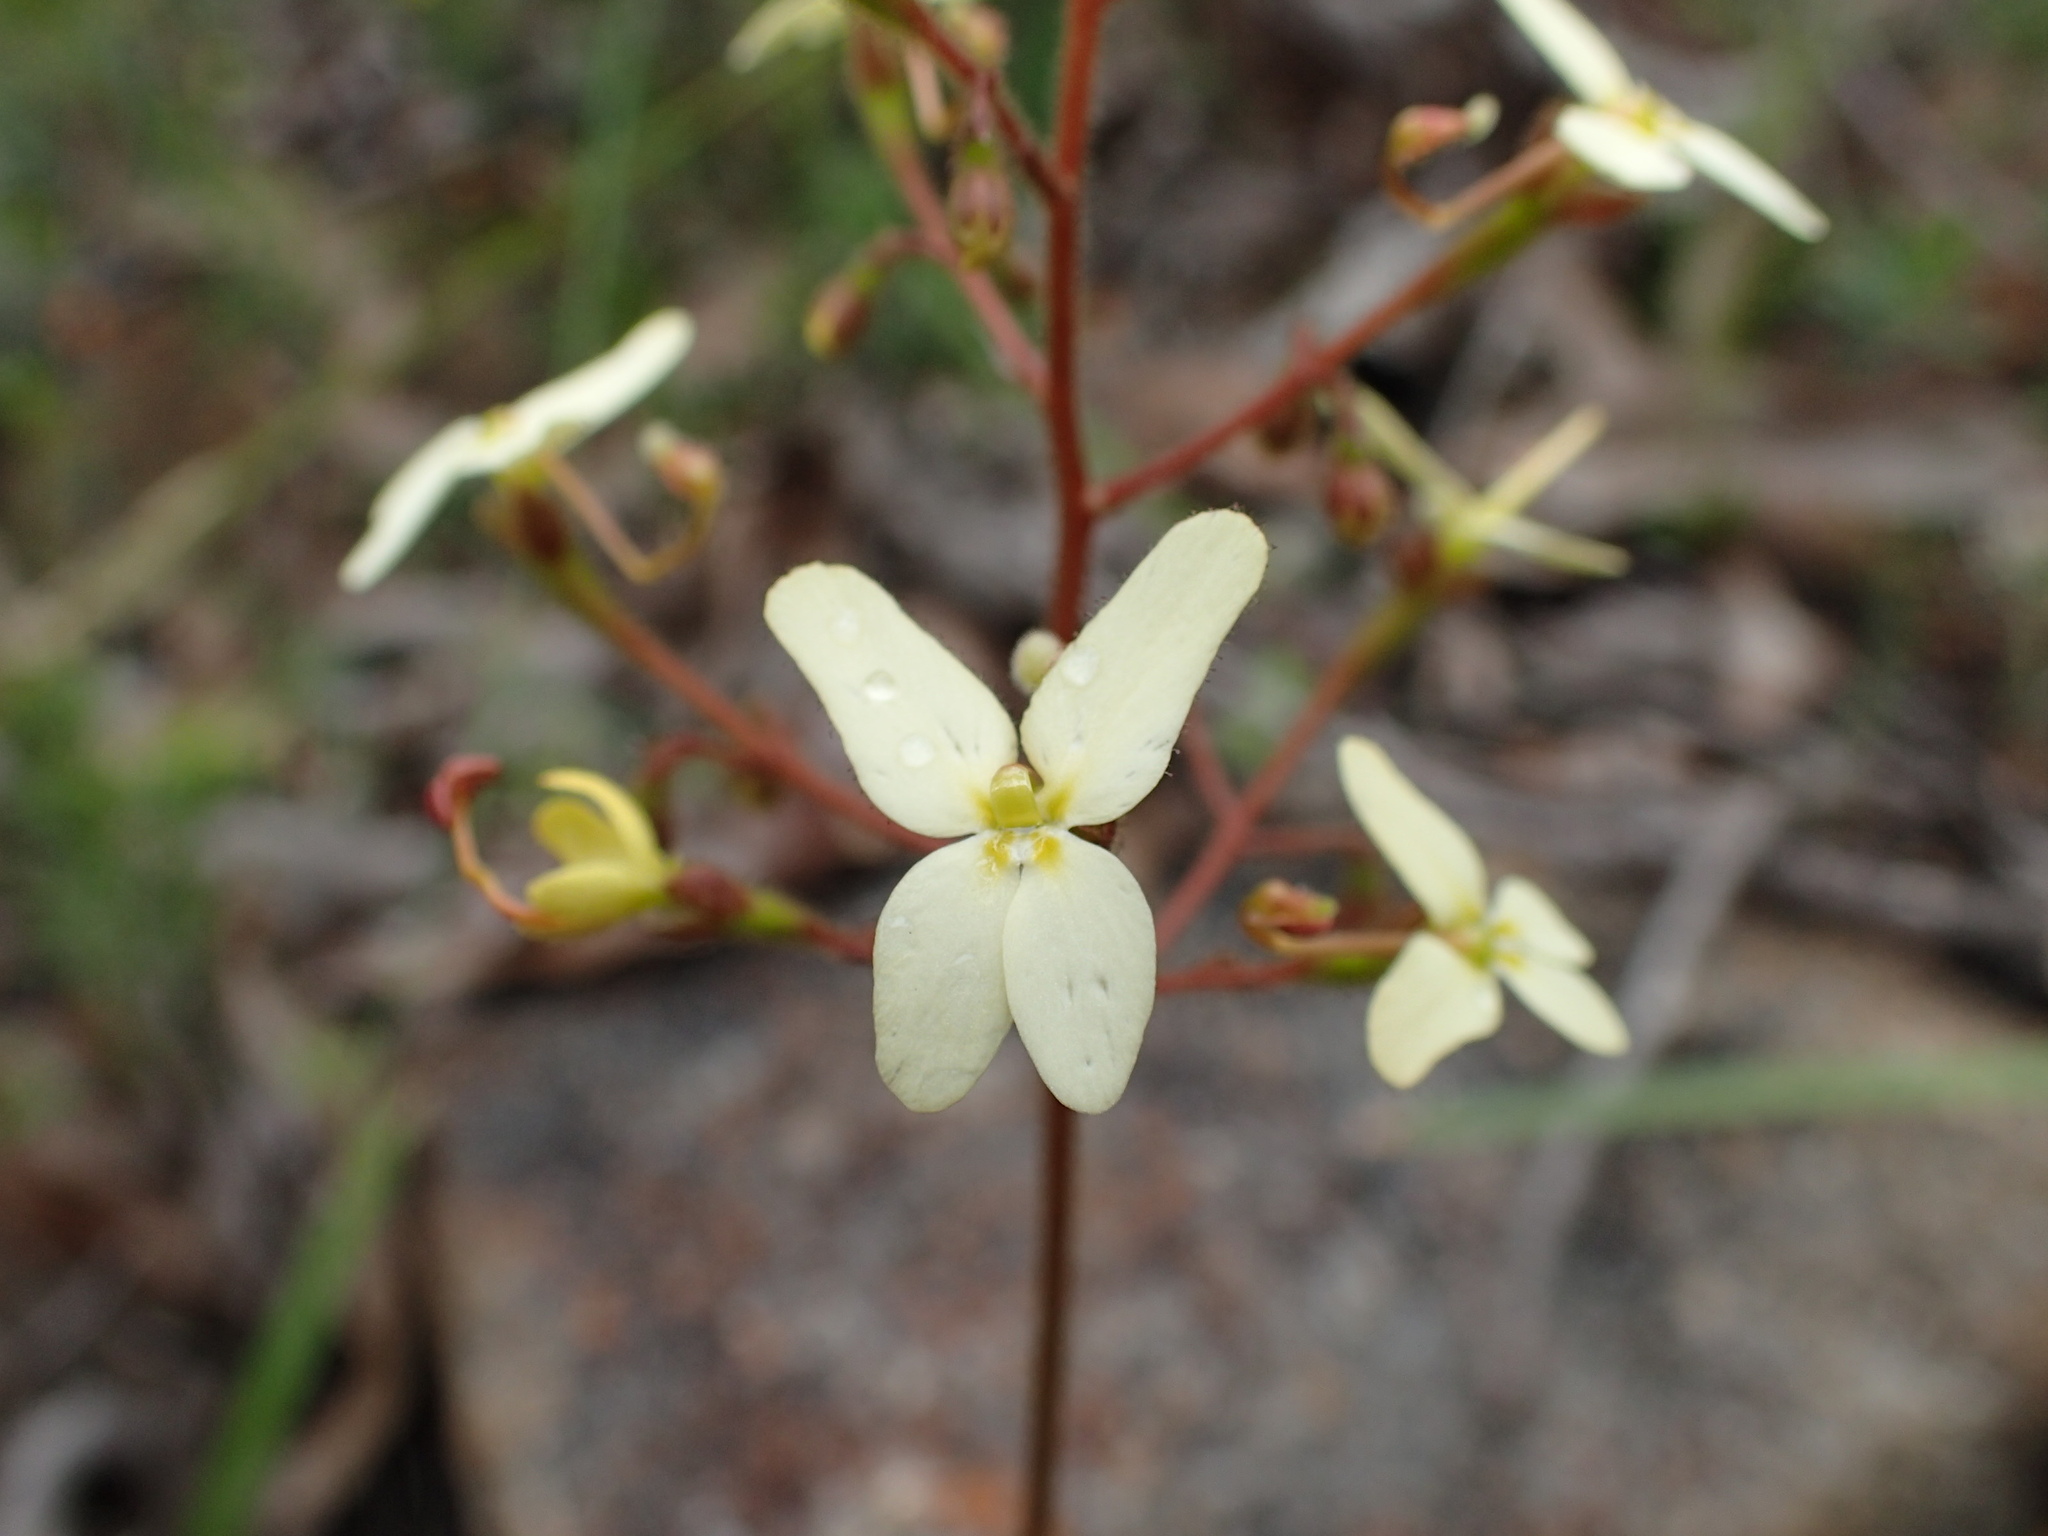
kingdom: Plantae
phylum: Tracheophyta
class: Magnoliopsida
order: Asterales
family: Stylidiaceae
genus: Stylidium
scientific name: Stylidium hispidum
